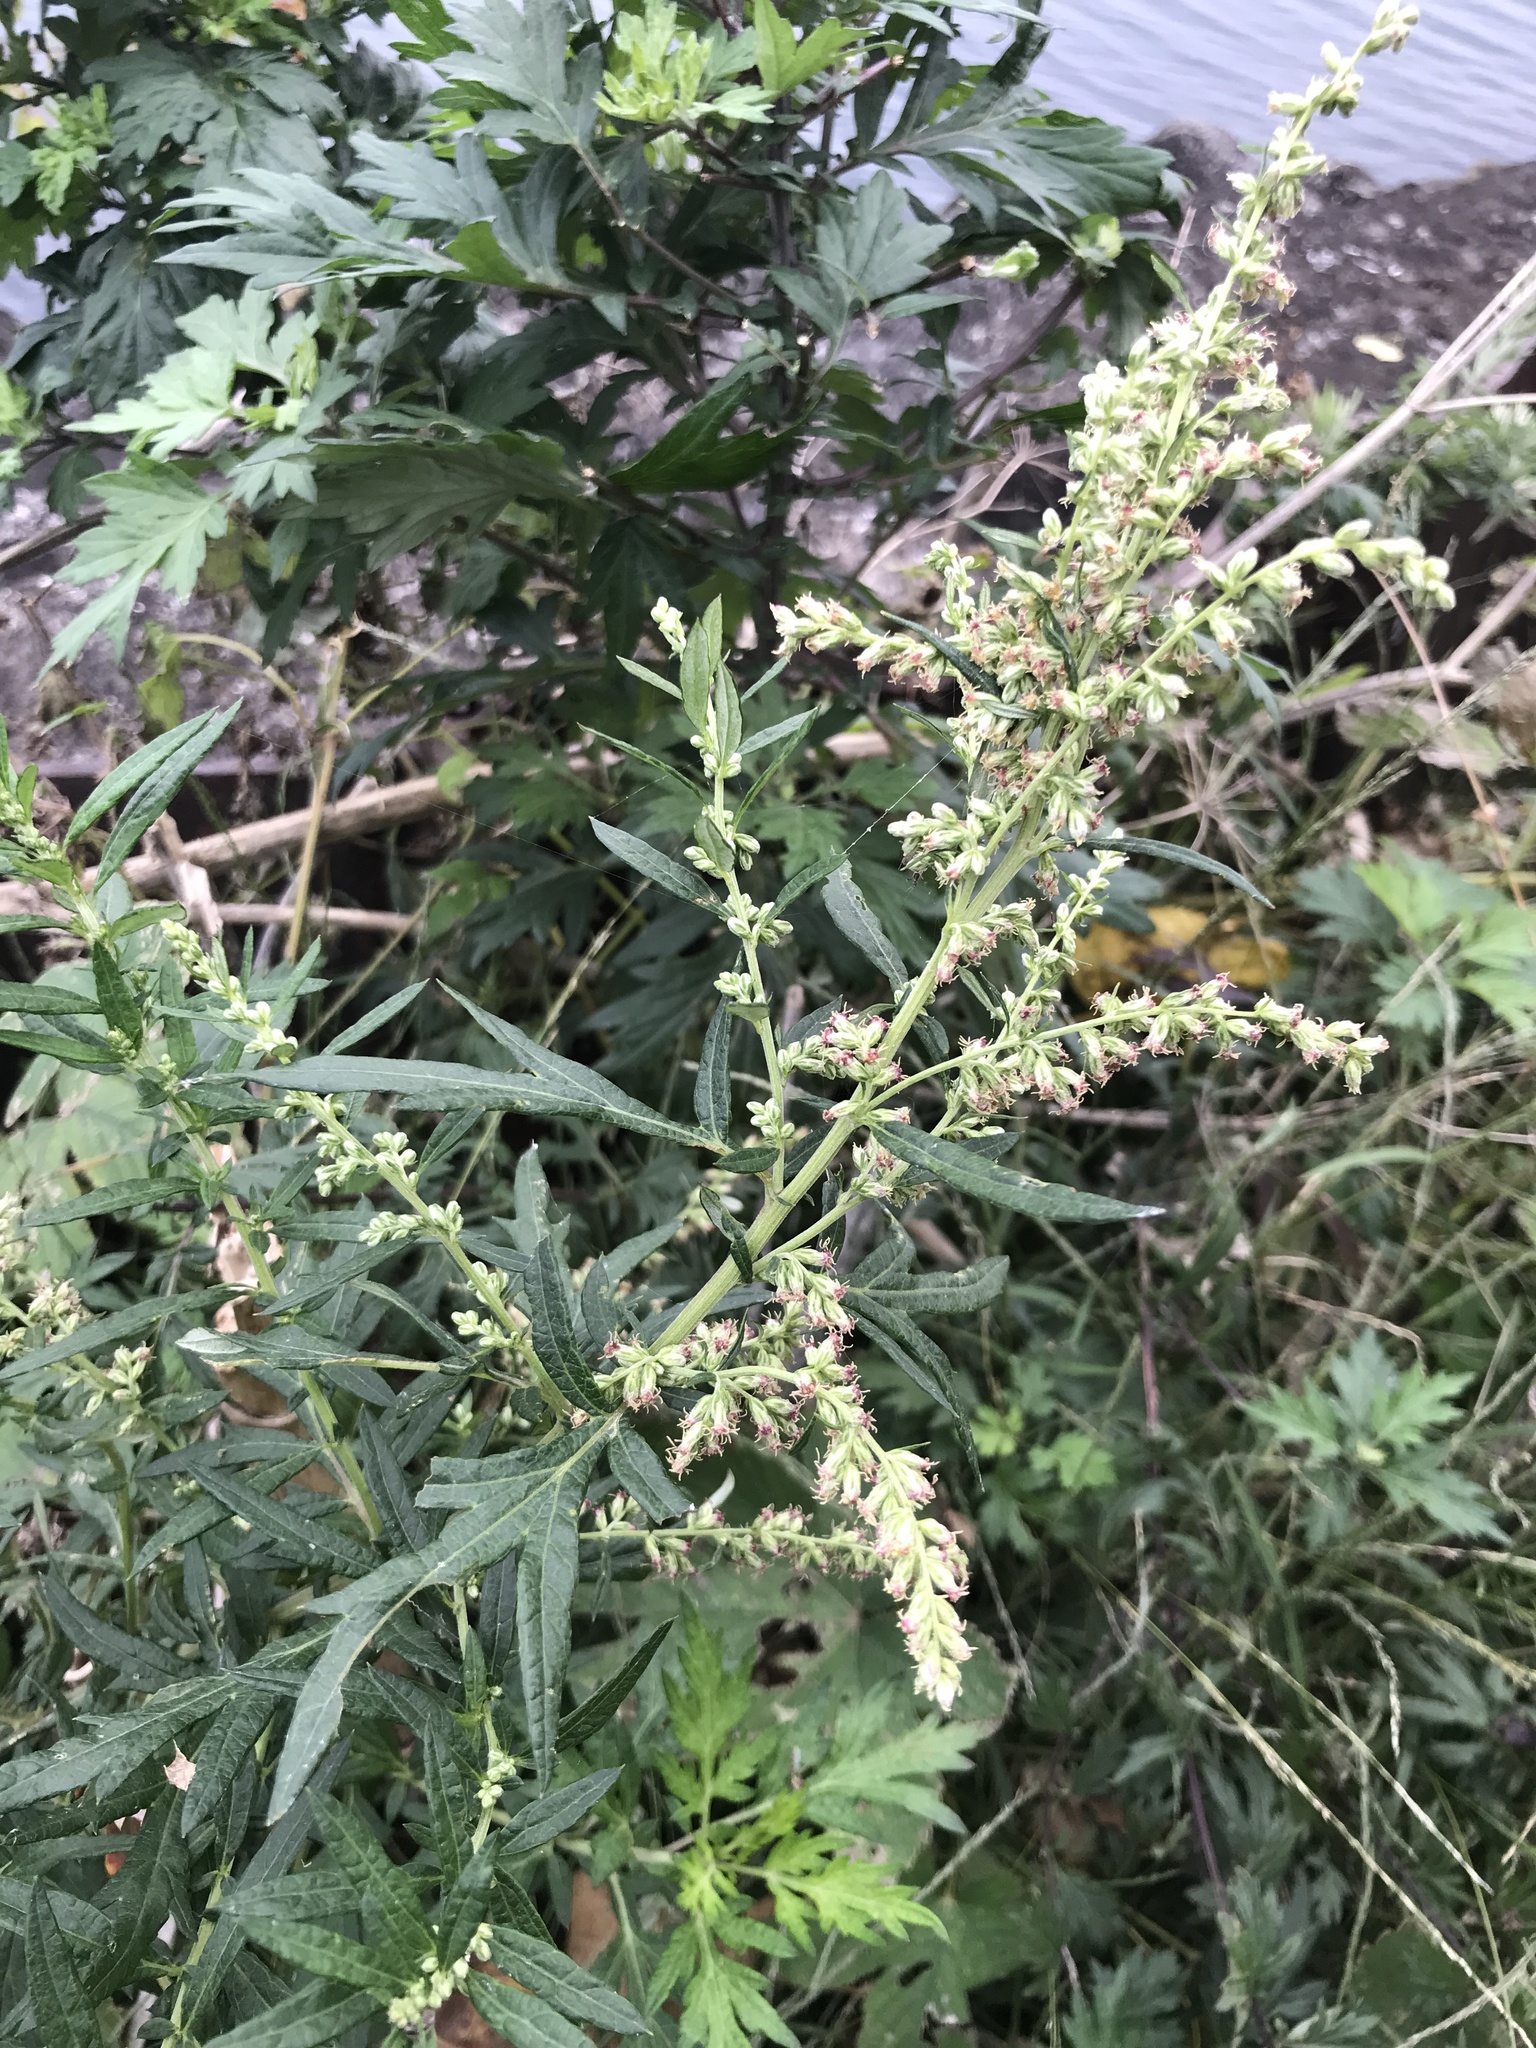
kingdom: Plantae
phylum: Tracheophyta
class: Magnoliopsida
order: Asterales
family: Asteraceae
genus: Artemisia
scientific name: Artemisia vulgaris
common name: Mugwort
